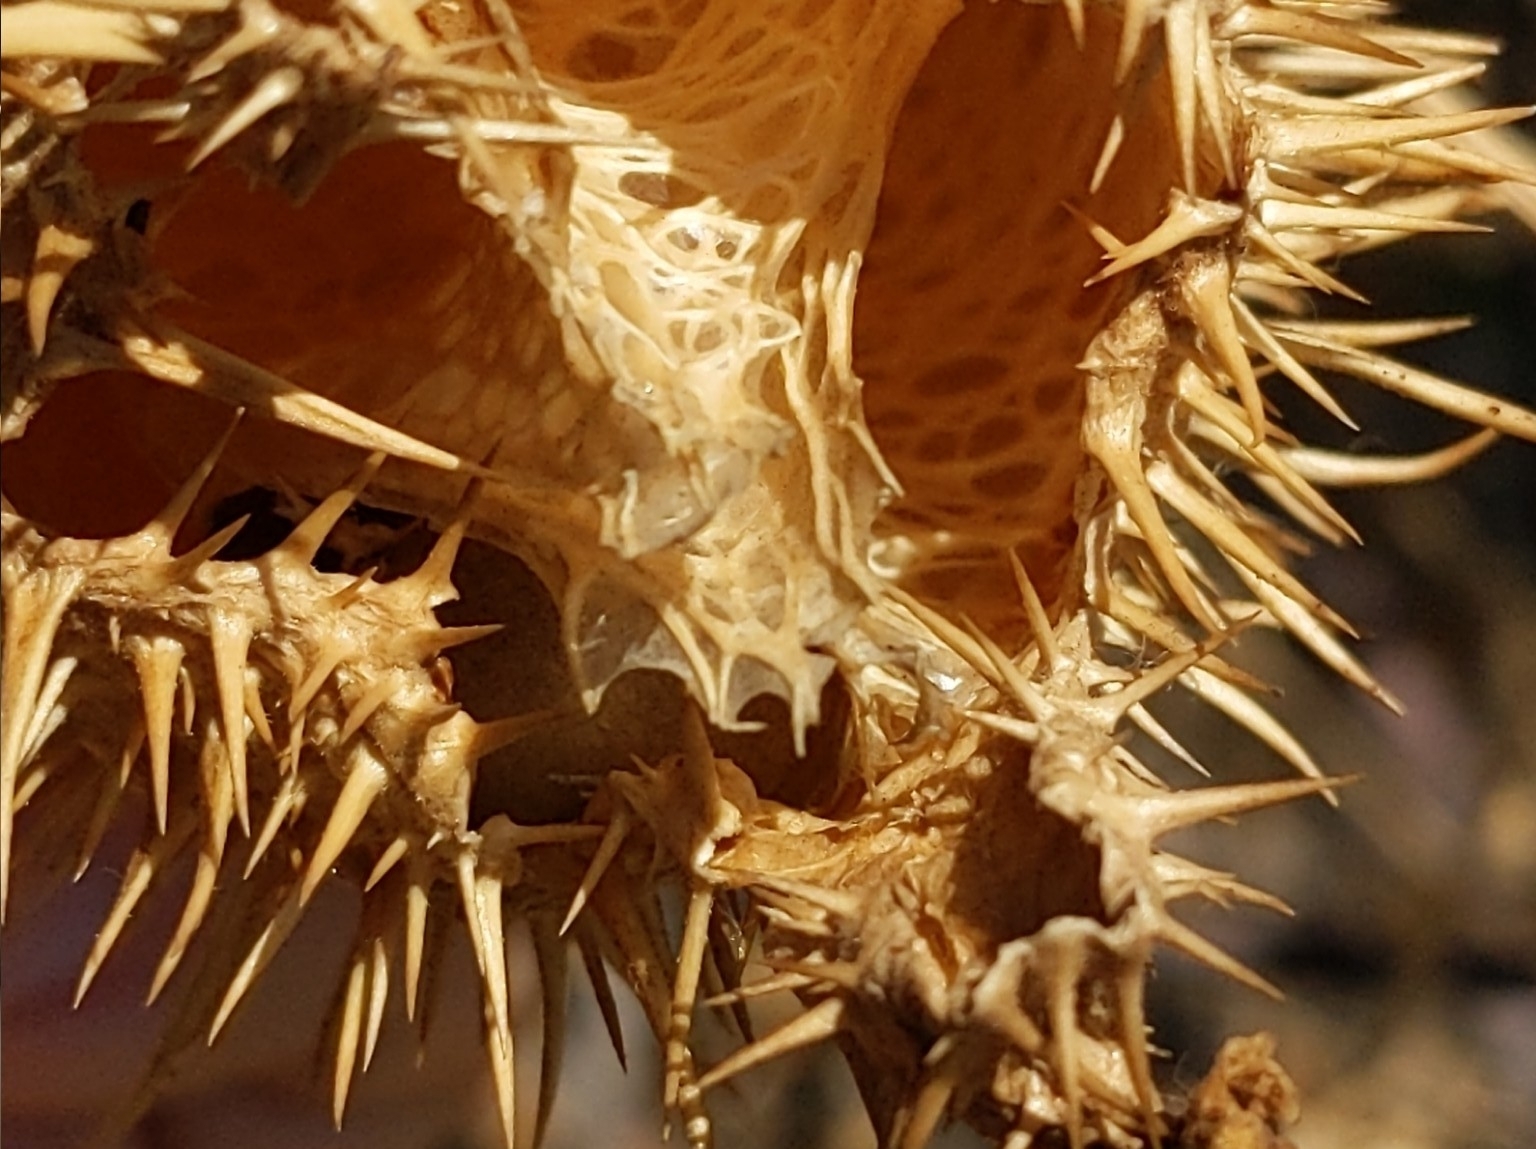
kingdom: Plantae
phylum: Tracheophyta
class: Magnoliopsida
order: Cucurbitales
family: Cucurbitaceae
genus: Marah
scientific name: Marah macrocarpa
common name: Cucamonga manroot
